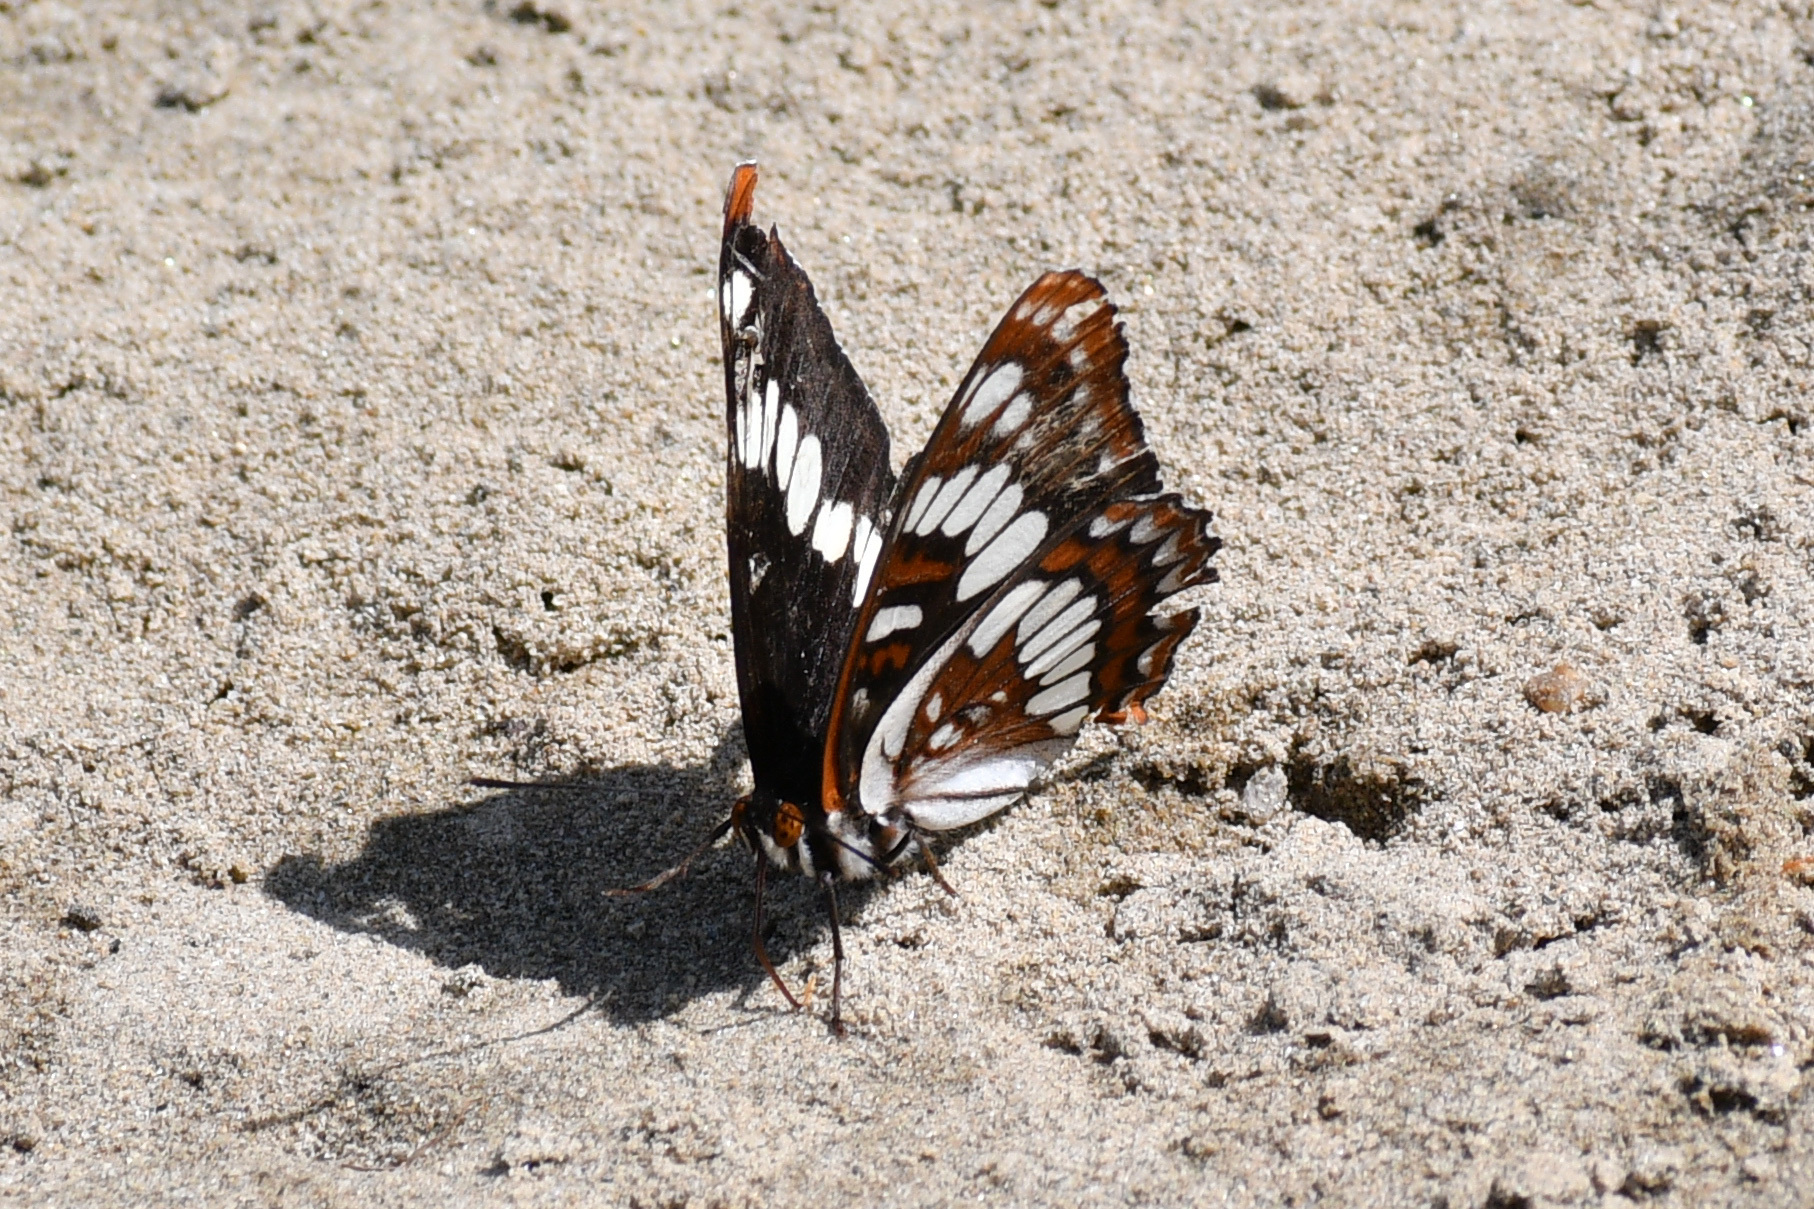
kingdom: Animalia
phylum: Arthropoda
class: Insecta
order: Lepidoptera
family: Nymphalidae
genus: Limenitis
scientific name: Limenitis lorquini
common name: Lorquin's admiral
